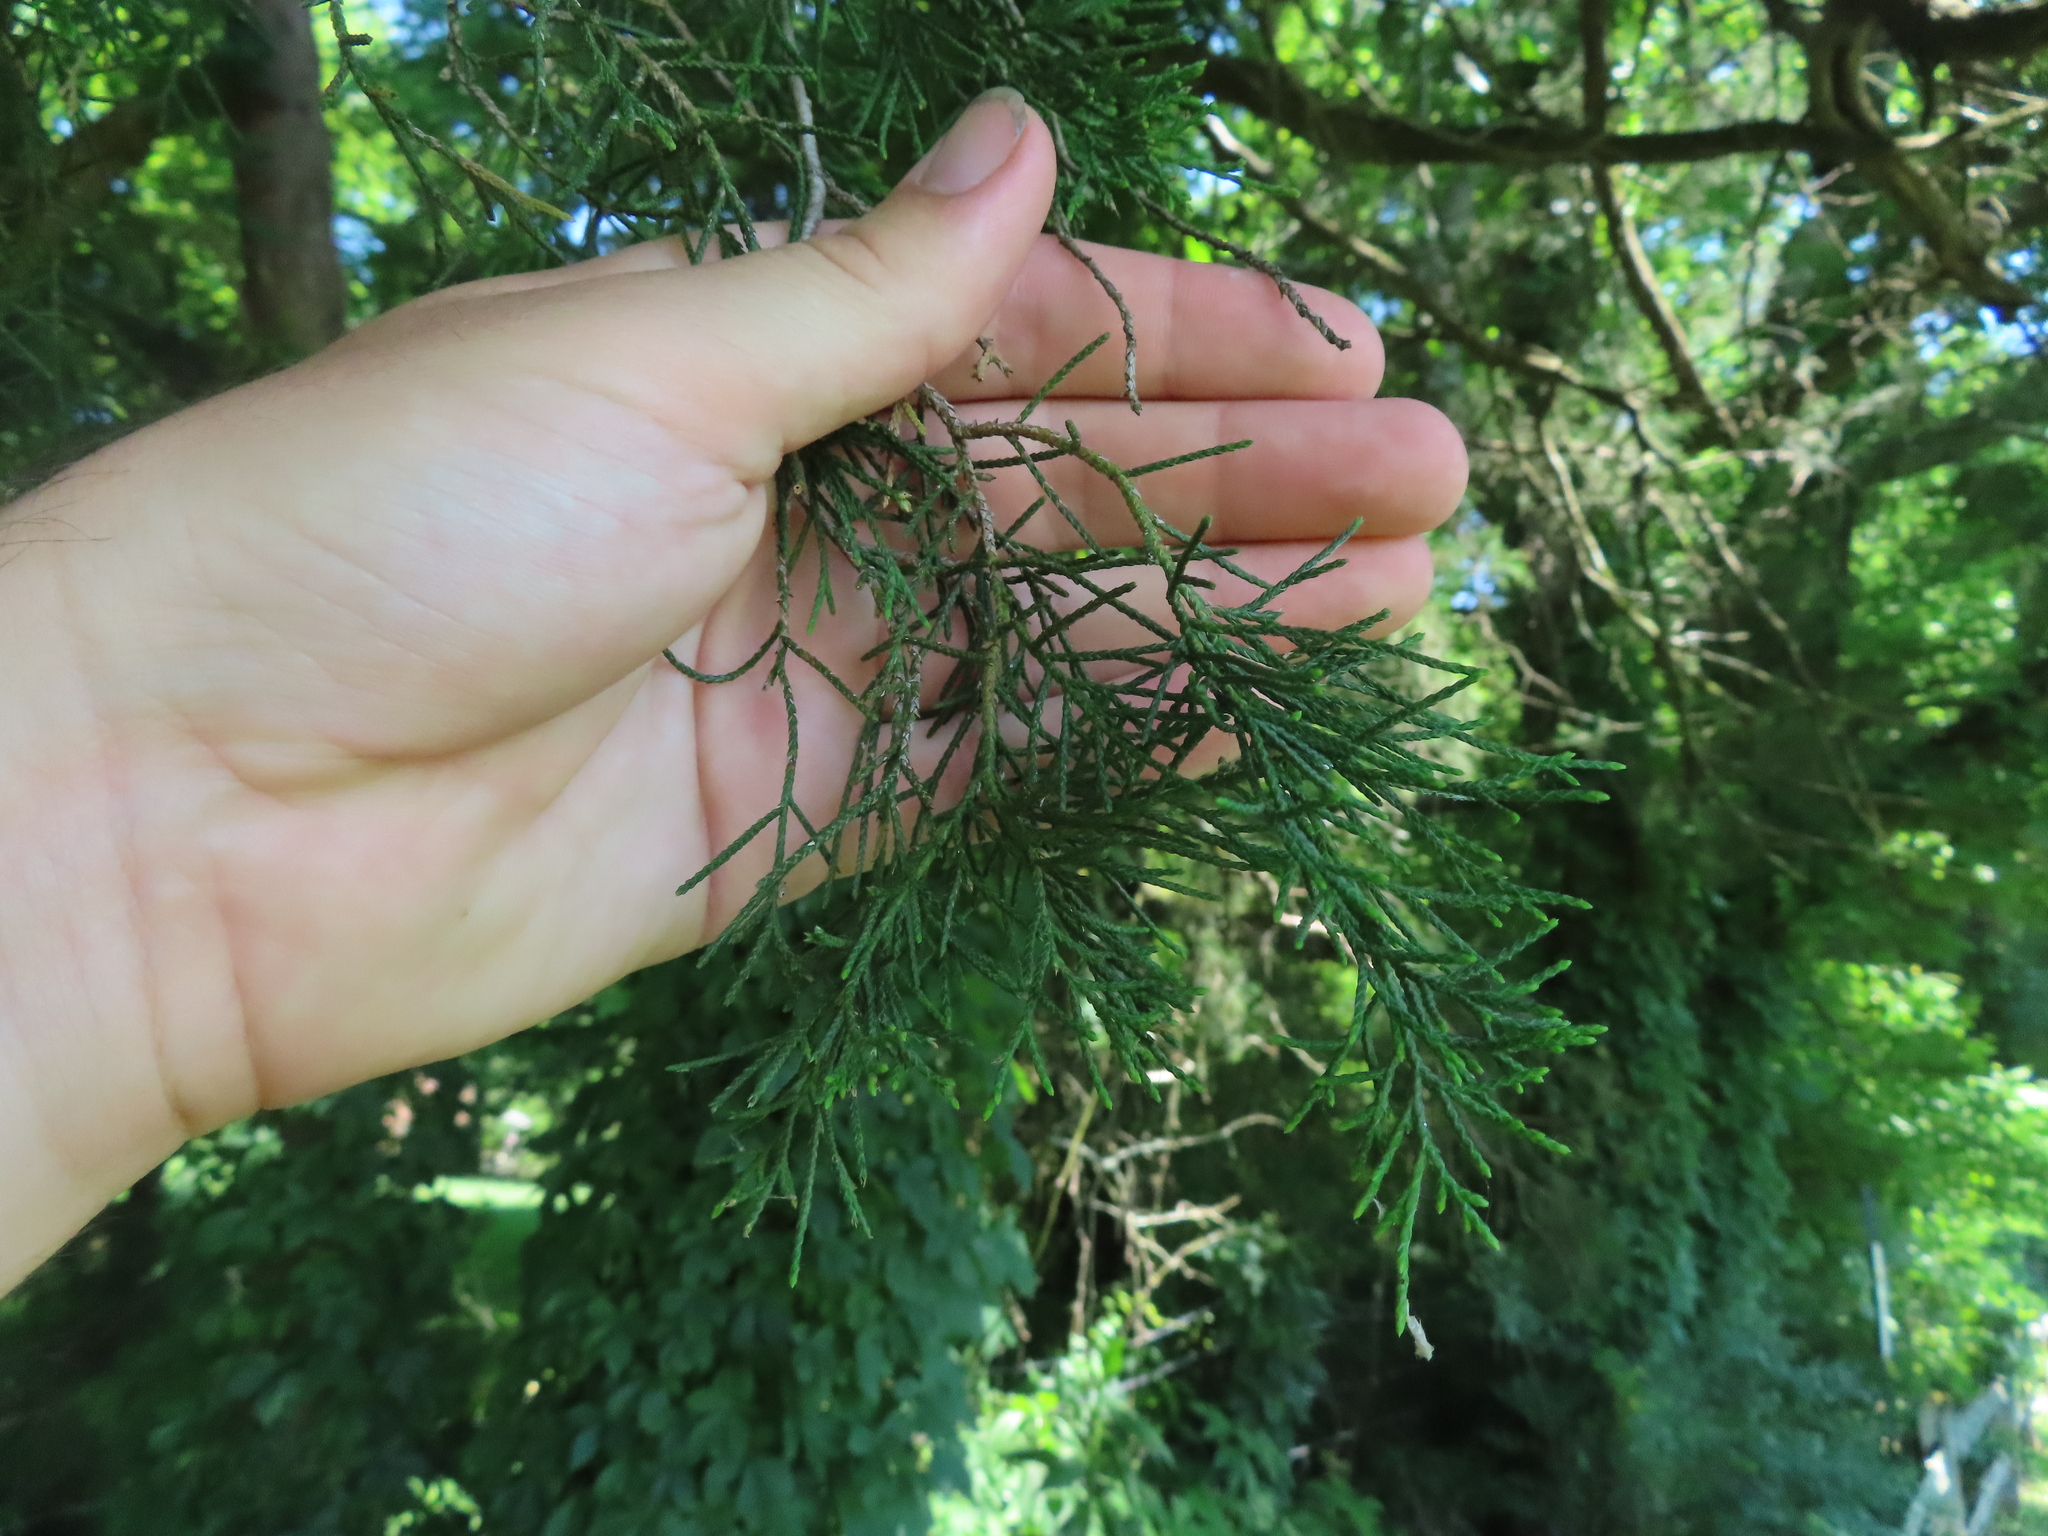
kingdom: Plantae
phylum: Tracheophyta
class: Pinopsida
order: Pinales
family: Cupressaceae
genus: Juniperus
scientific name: Juniperus virginiana
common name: Red juniper
